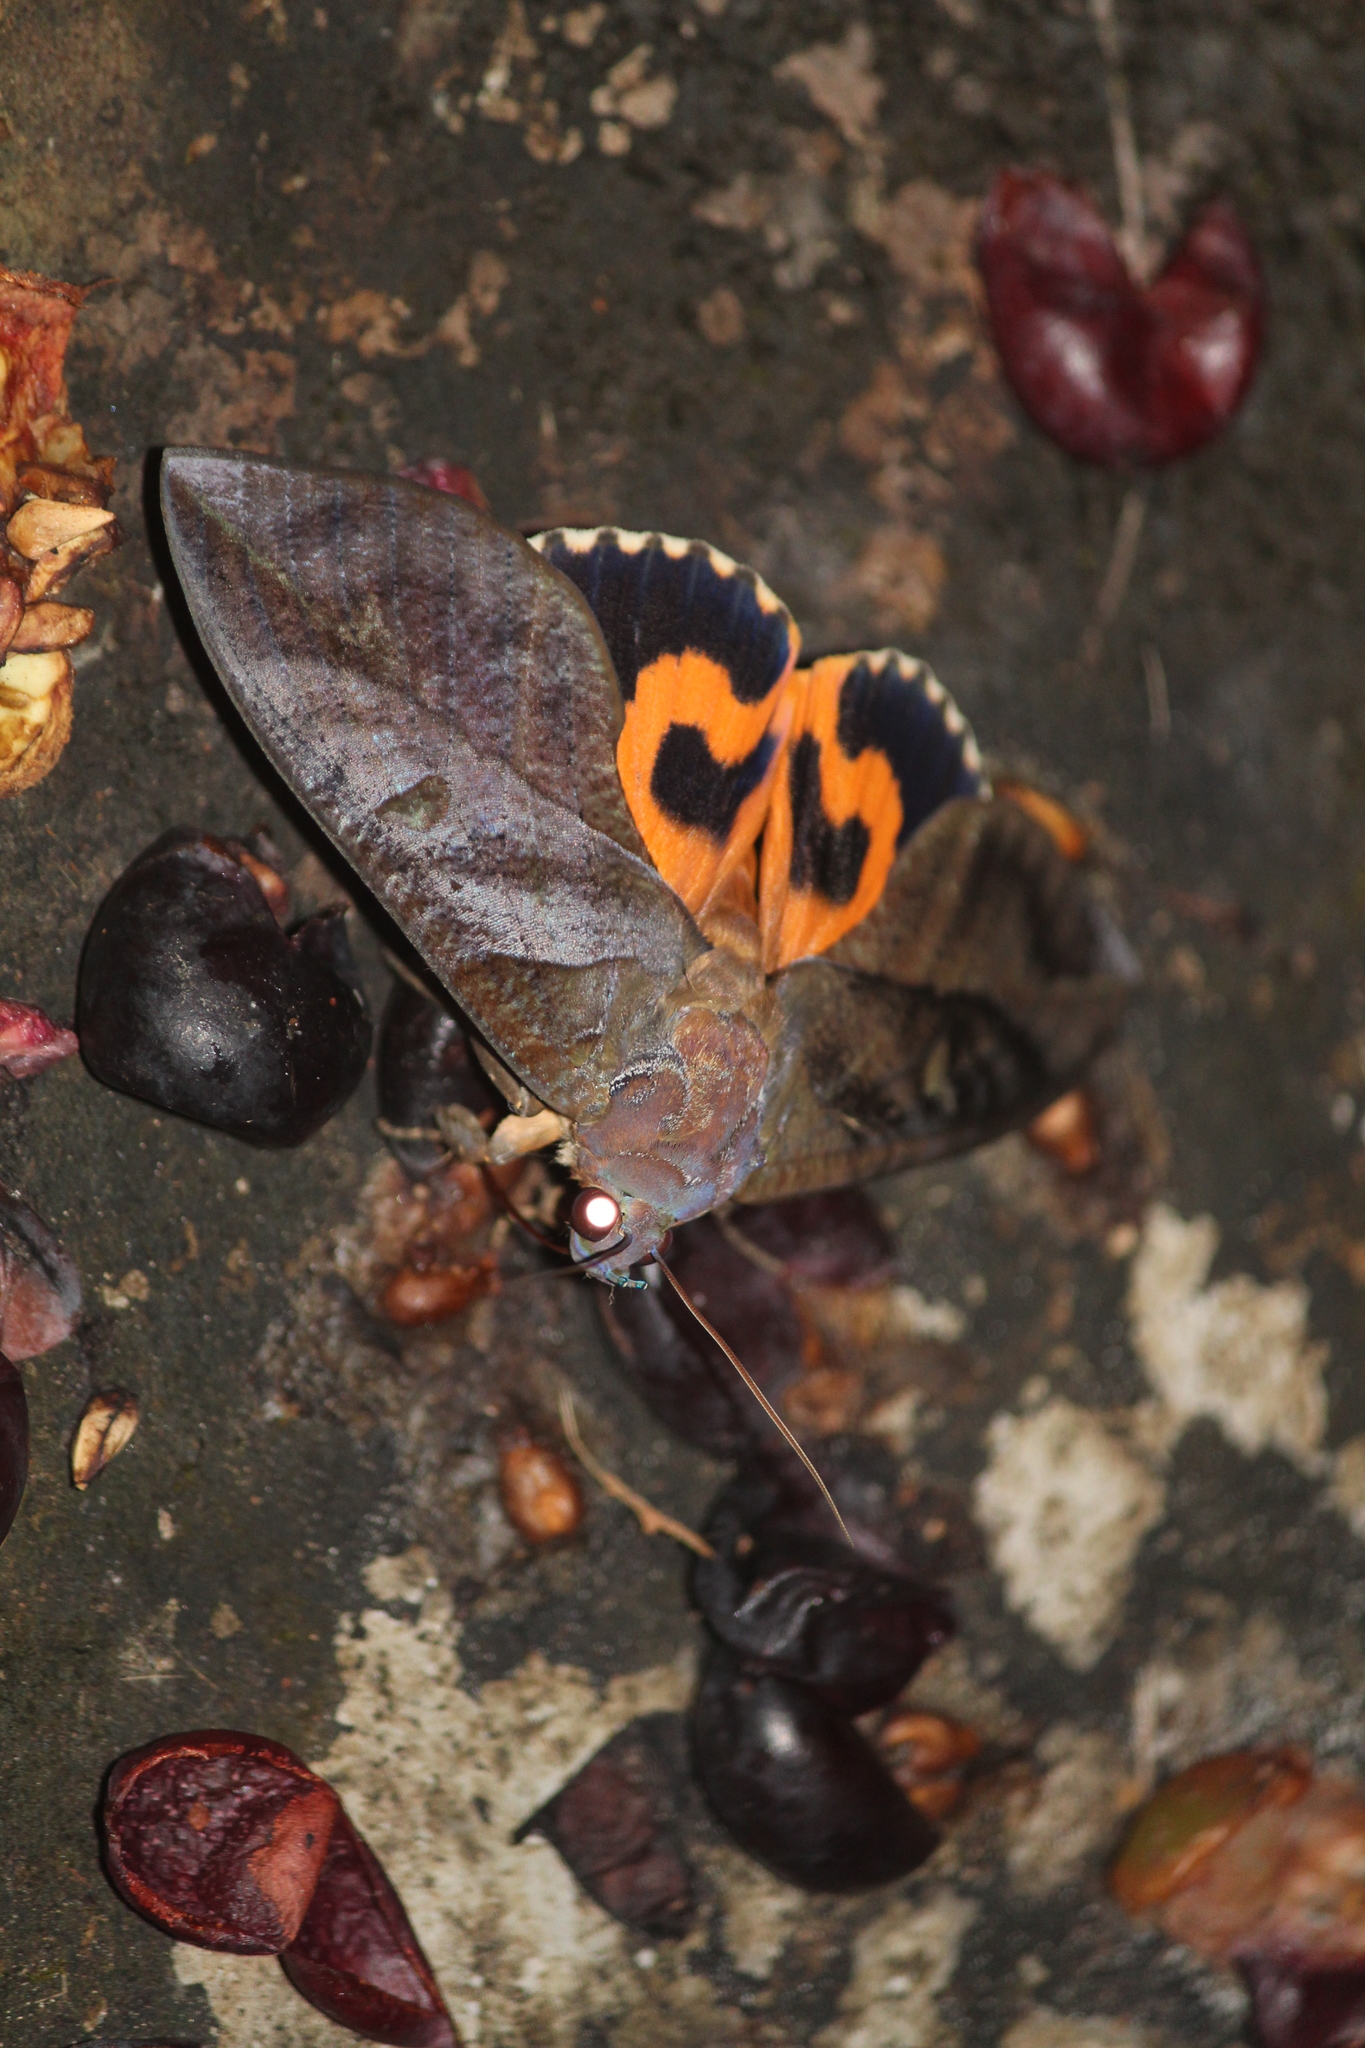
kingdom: Animalia
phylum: Arthropoda
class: Insecta
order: Lepidoptera
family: Erebidae
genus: Eudocima
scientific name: Eudocima phalonia
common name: Wasp
